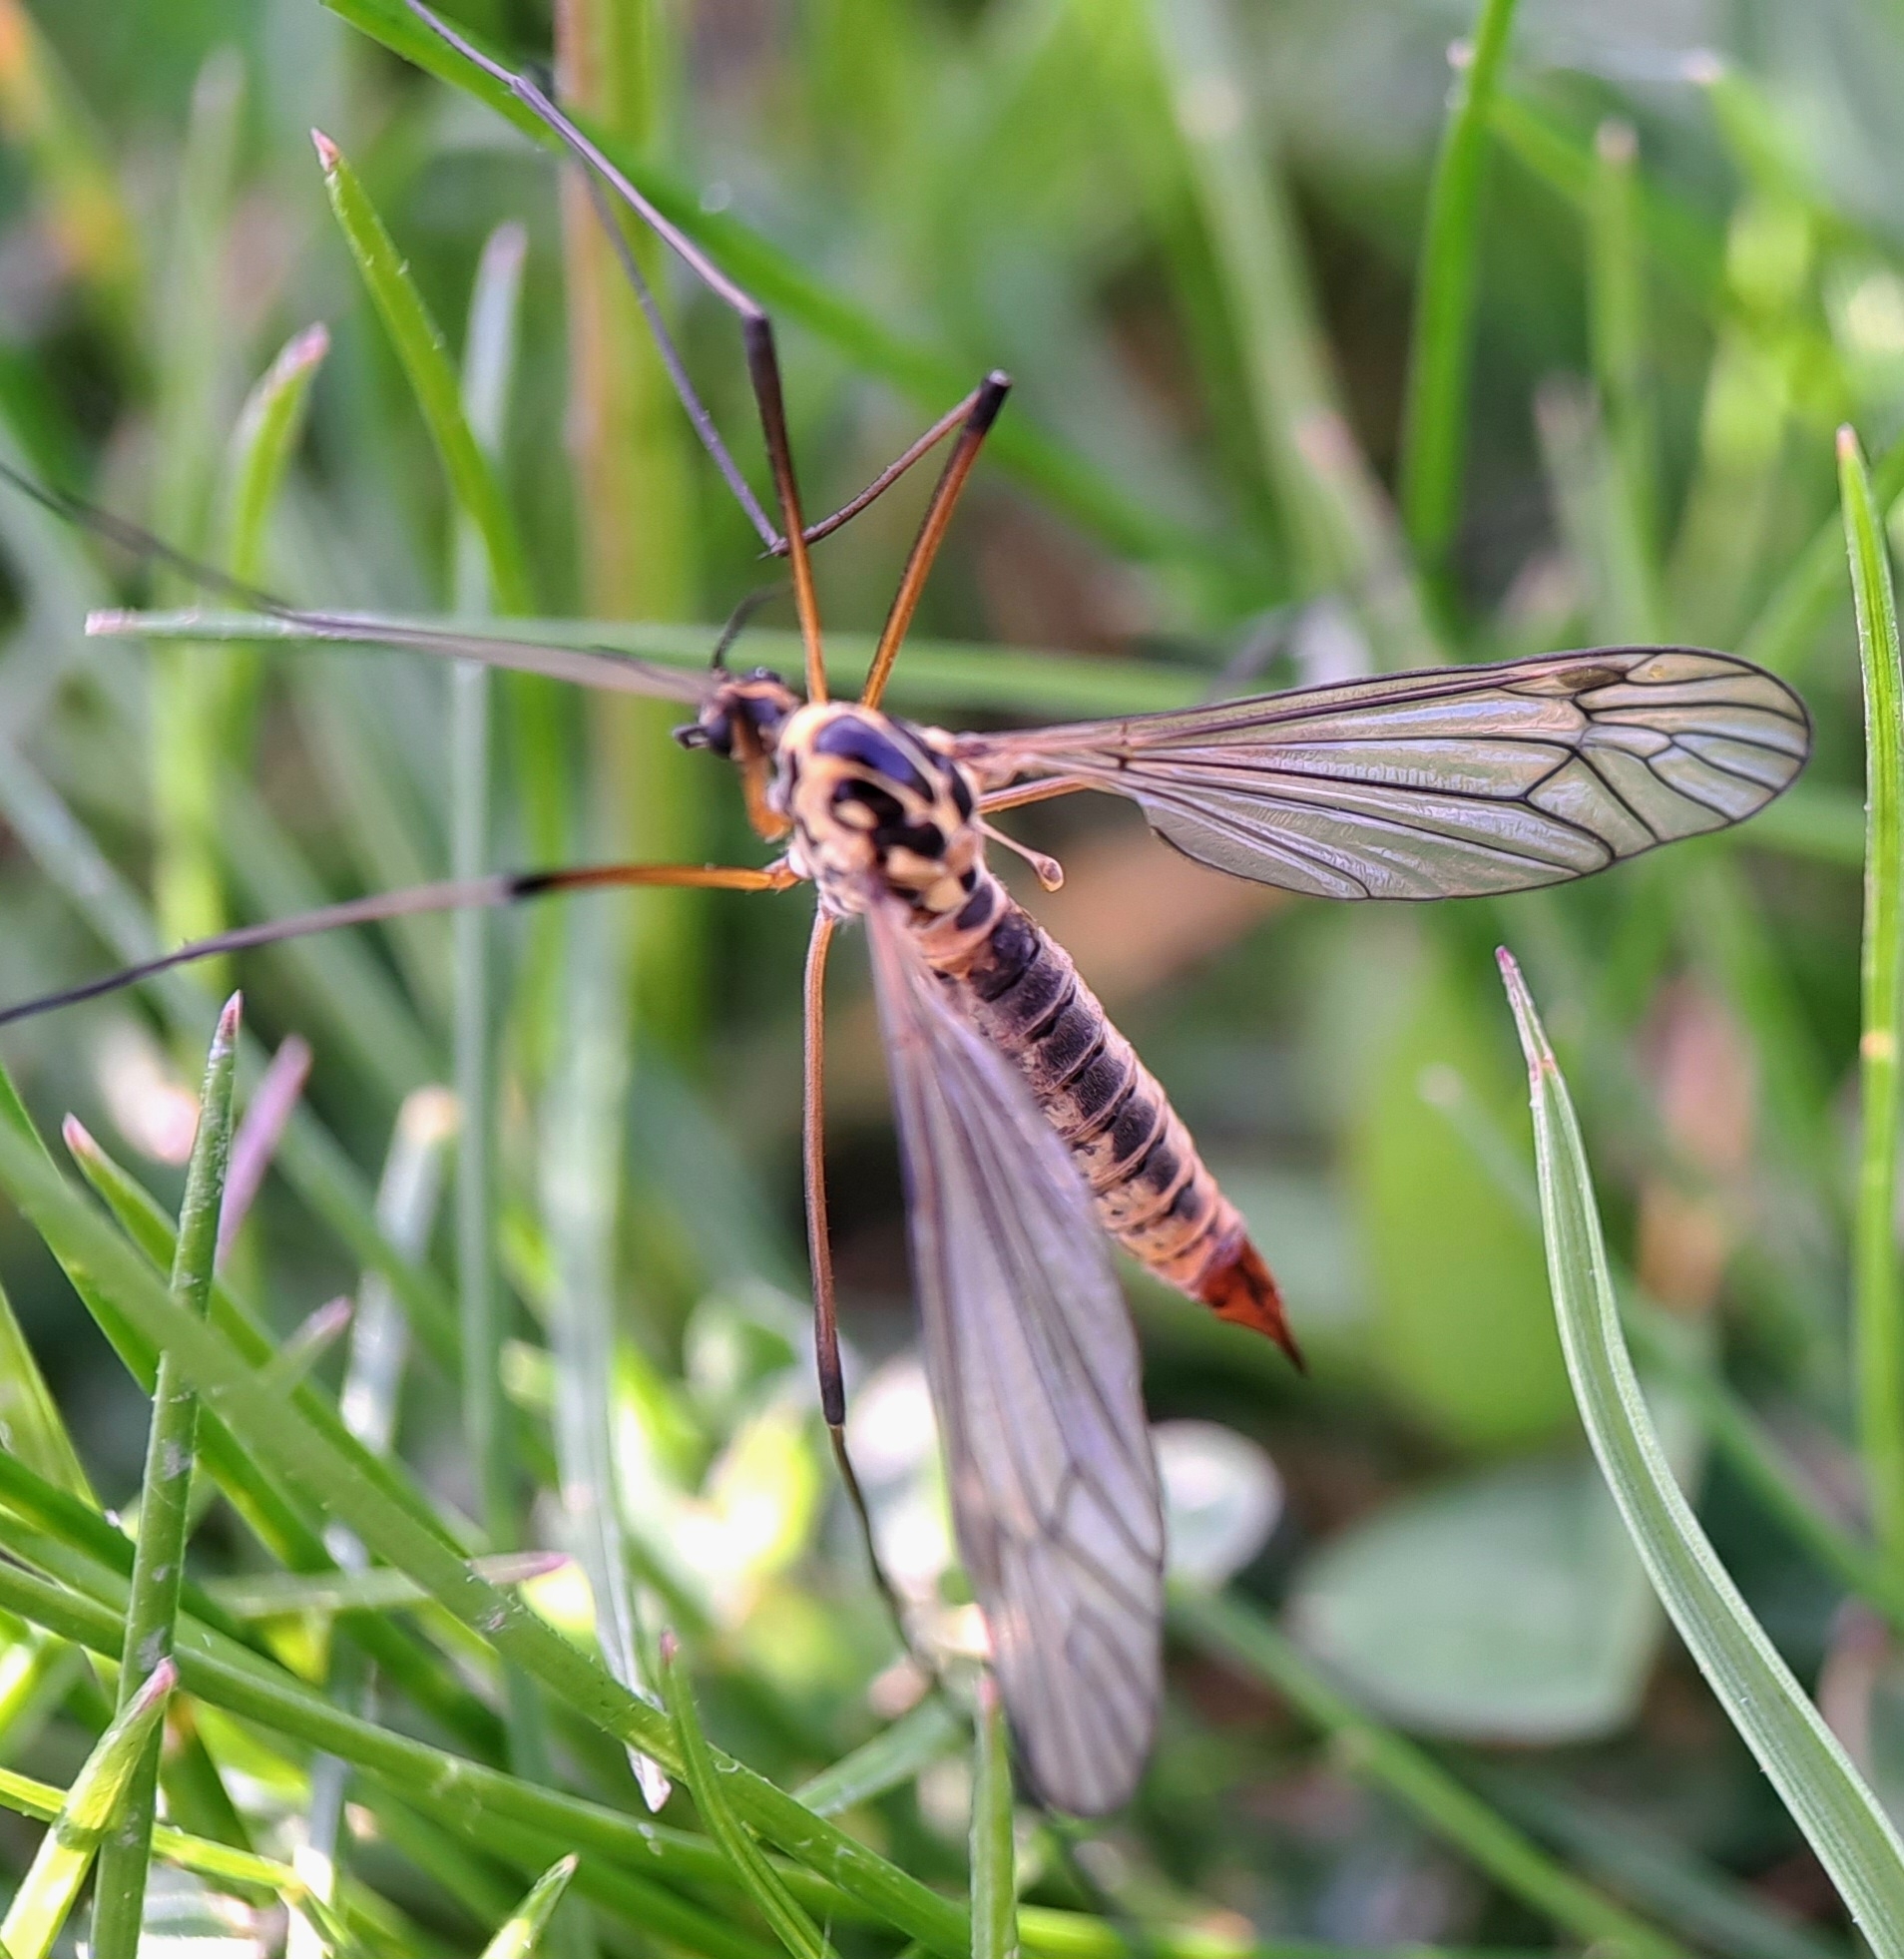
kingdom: Animalia
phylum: Arthropoda
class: Insecta
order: Diptera
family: Tipulidae
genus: Nephrotoma
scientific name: Nephrotoma appendiculata
